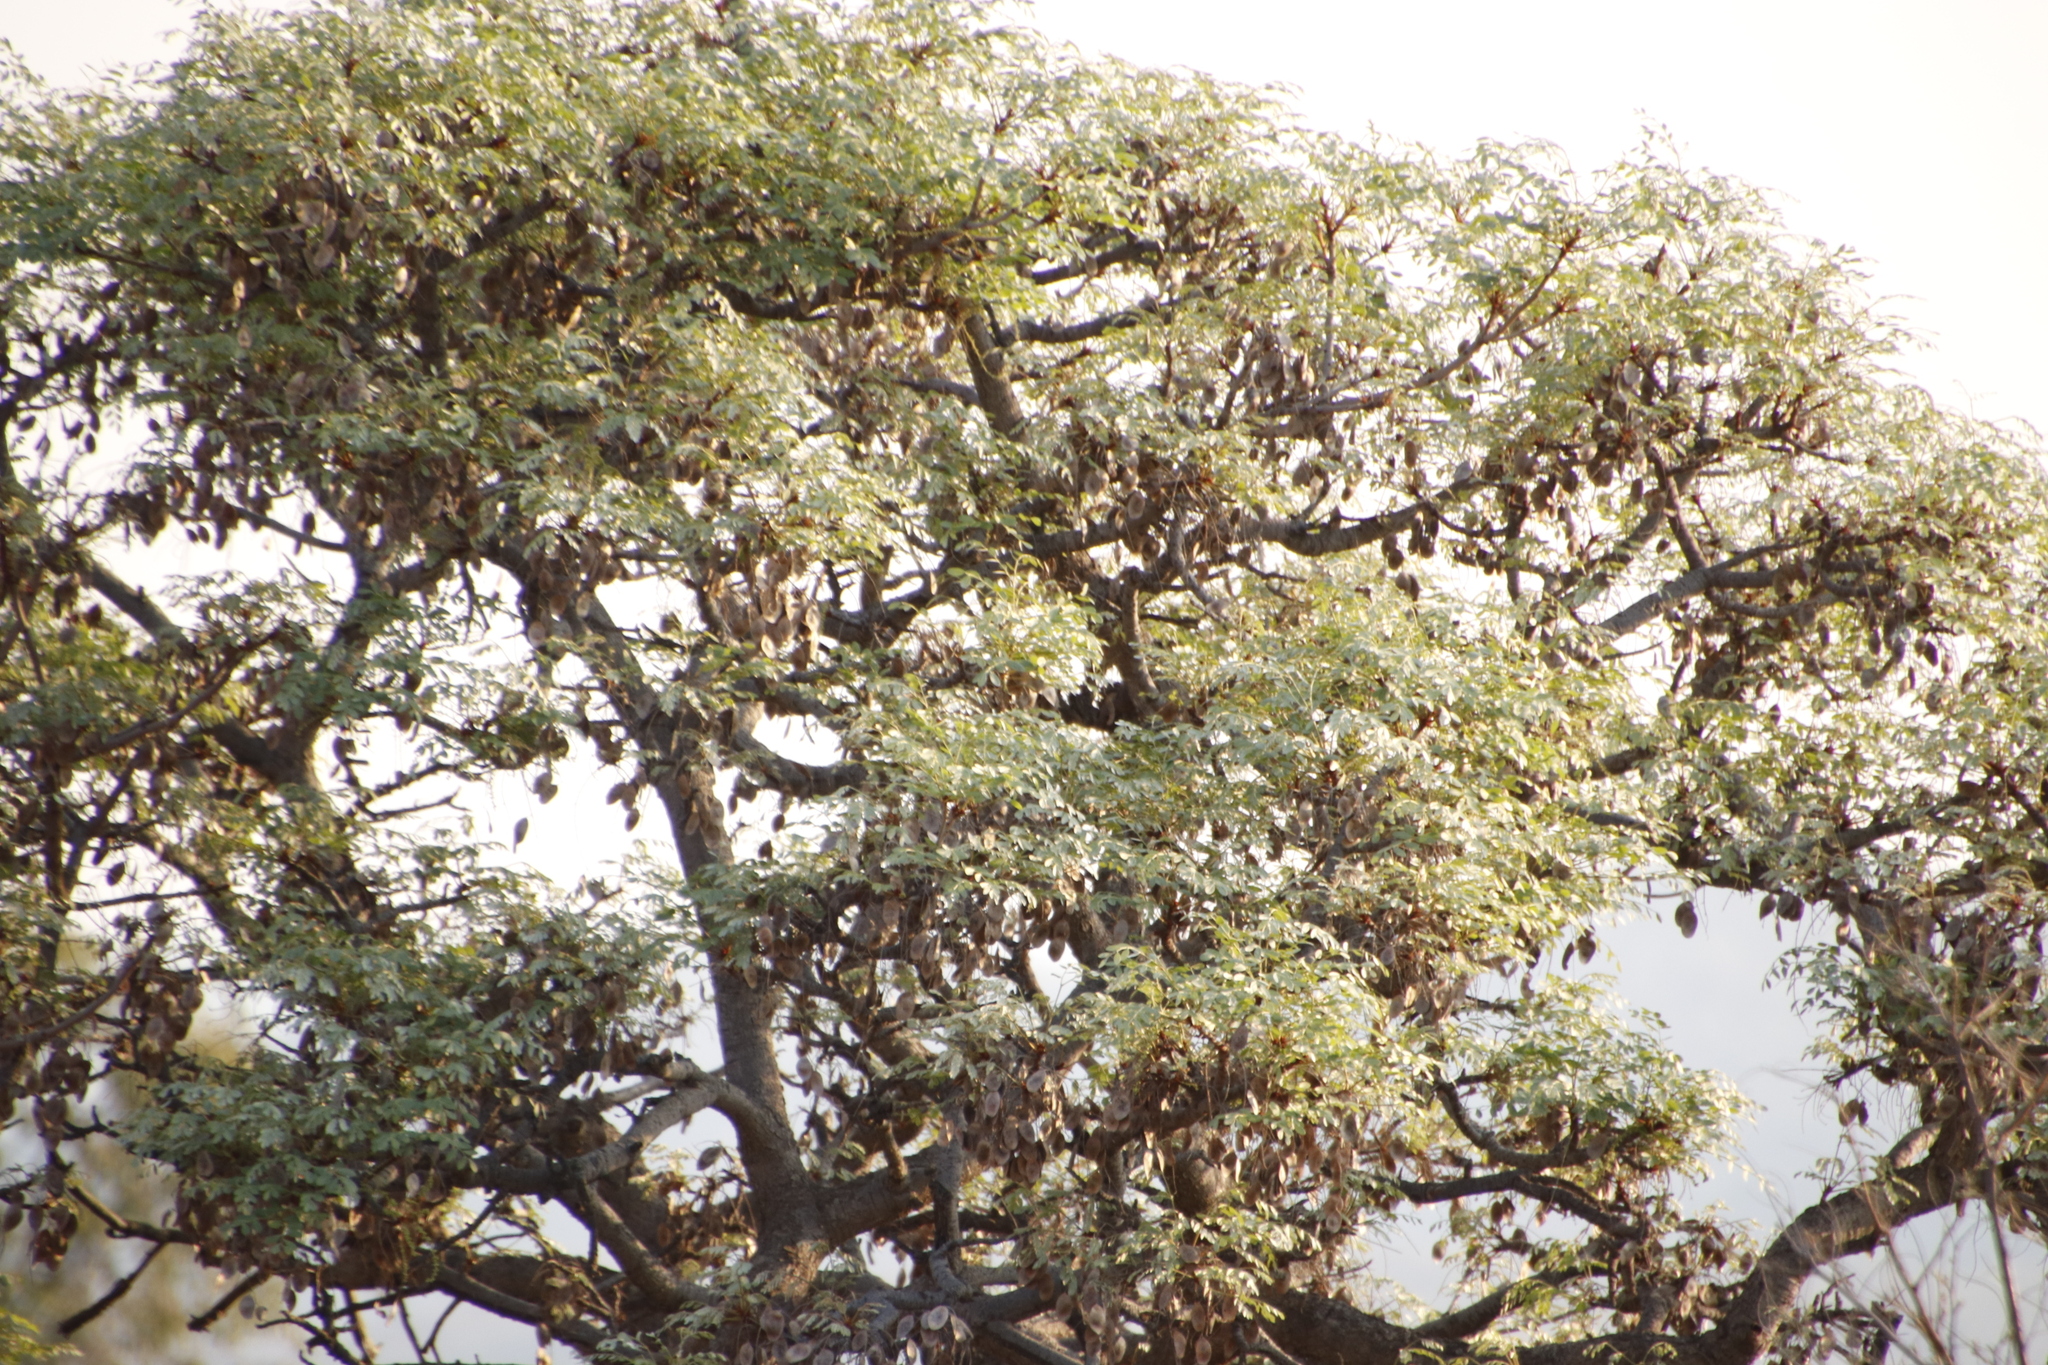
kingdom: Plantae
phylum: Tracheophyta
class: Magnoliopsida
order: Fabales
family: Fabaceae
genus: Burkea
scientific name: Burkea africana
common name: Mkalati tree
